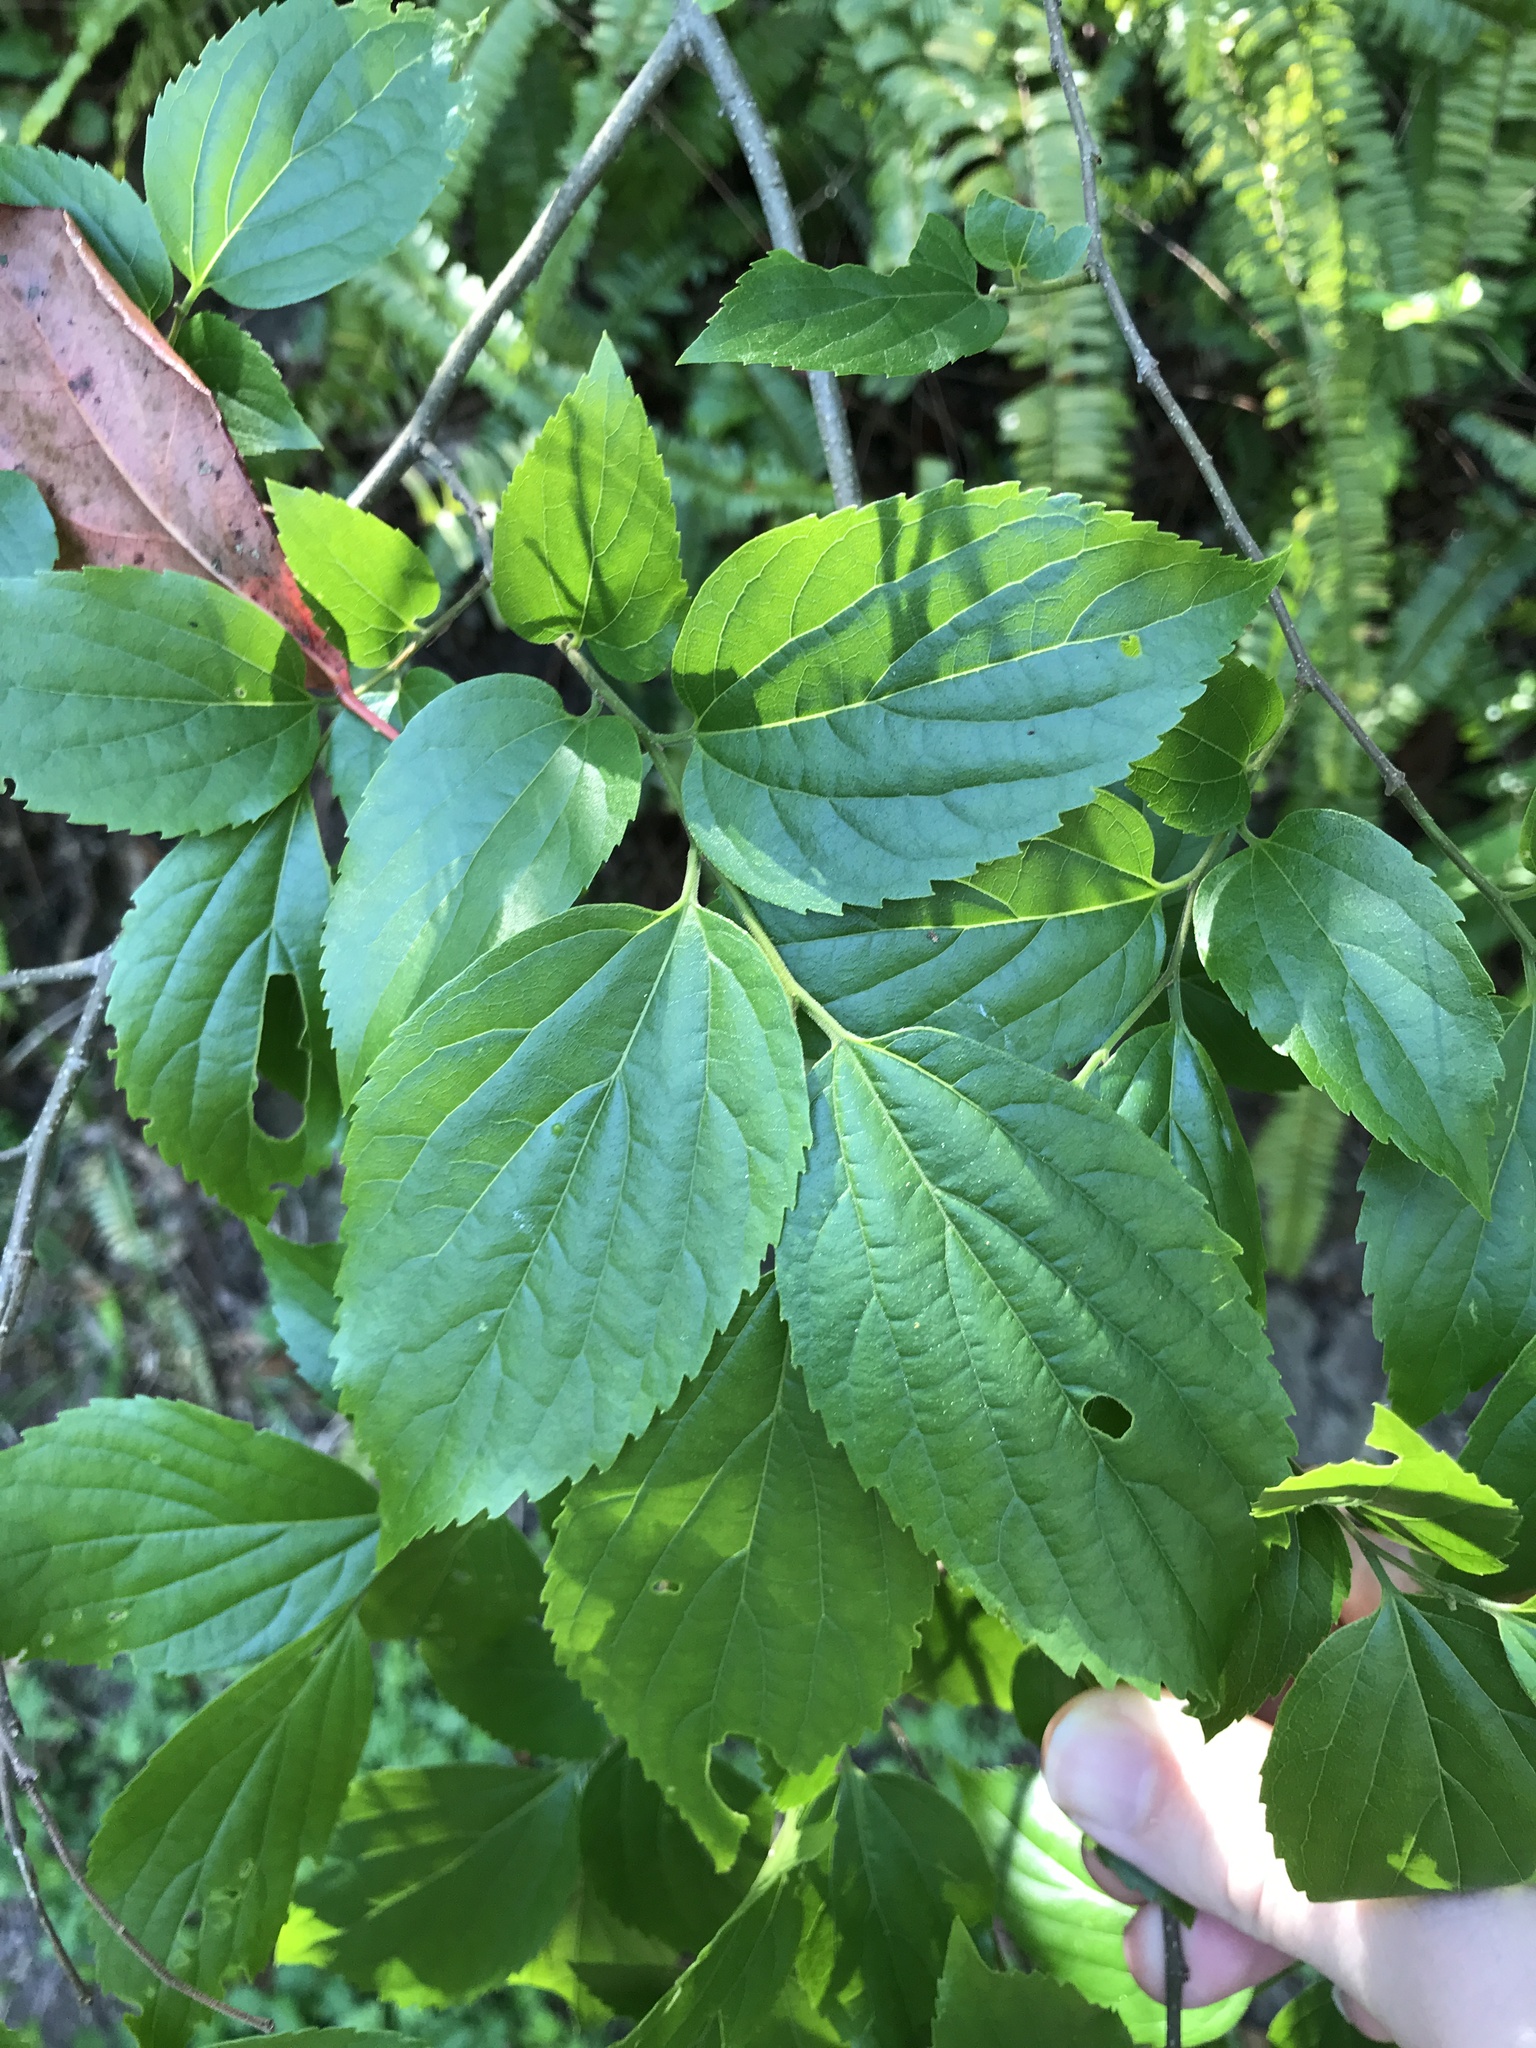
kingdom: Plantae
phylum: Tracheophyta
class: Magnoliopsida
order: Rosales
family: Cannabaceae
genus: Celtis
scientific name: Celtis boninensis
